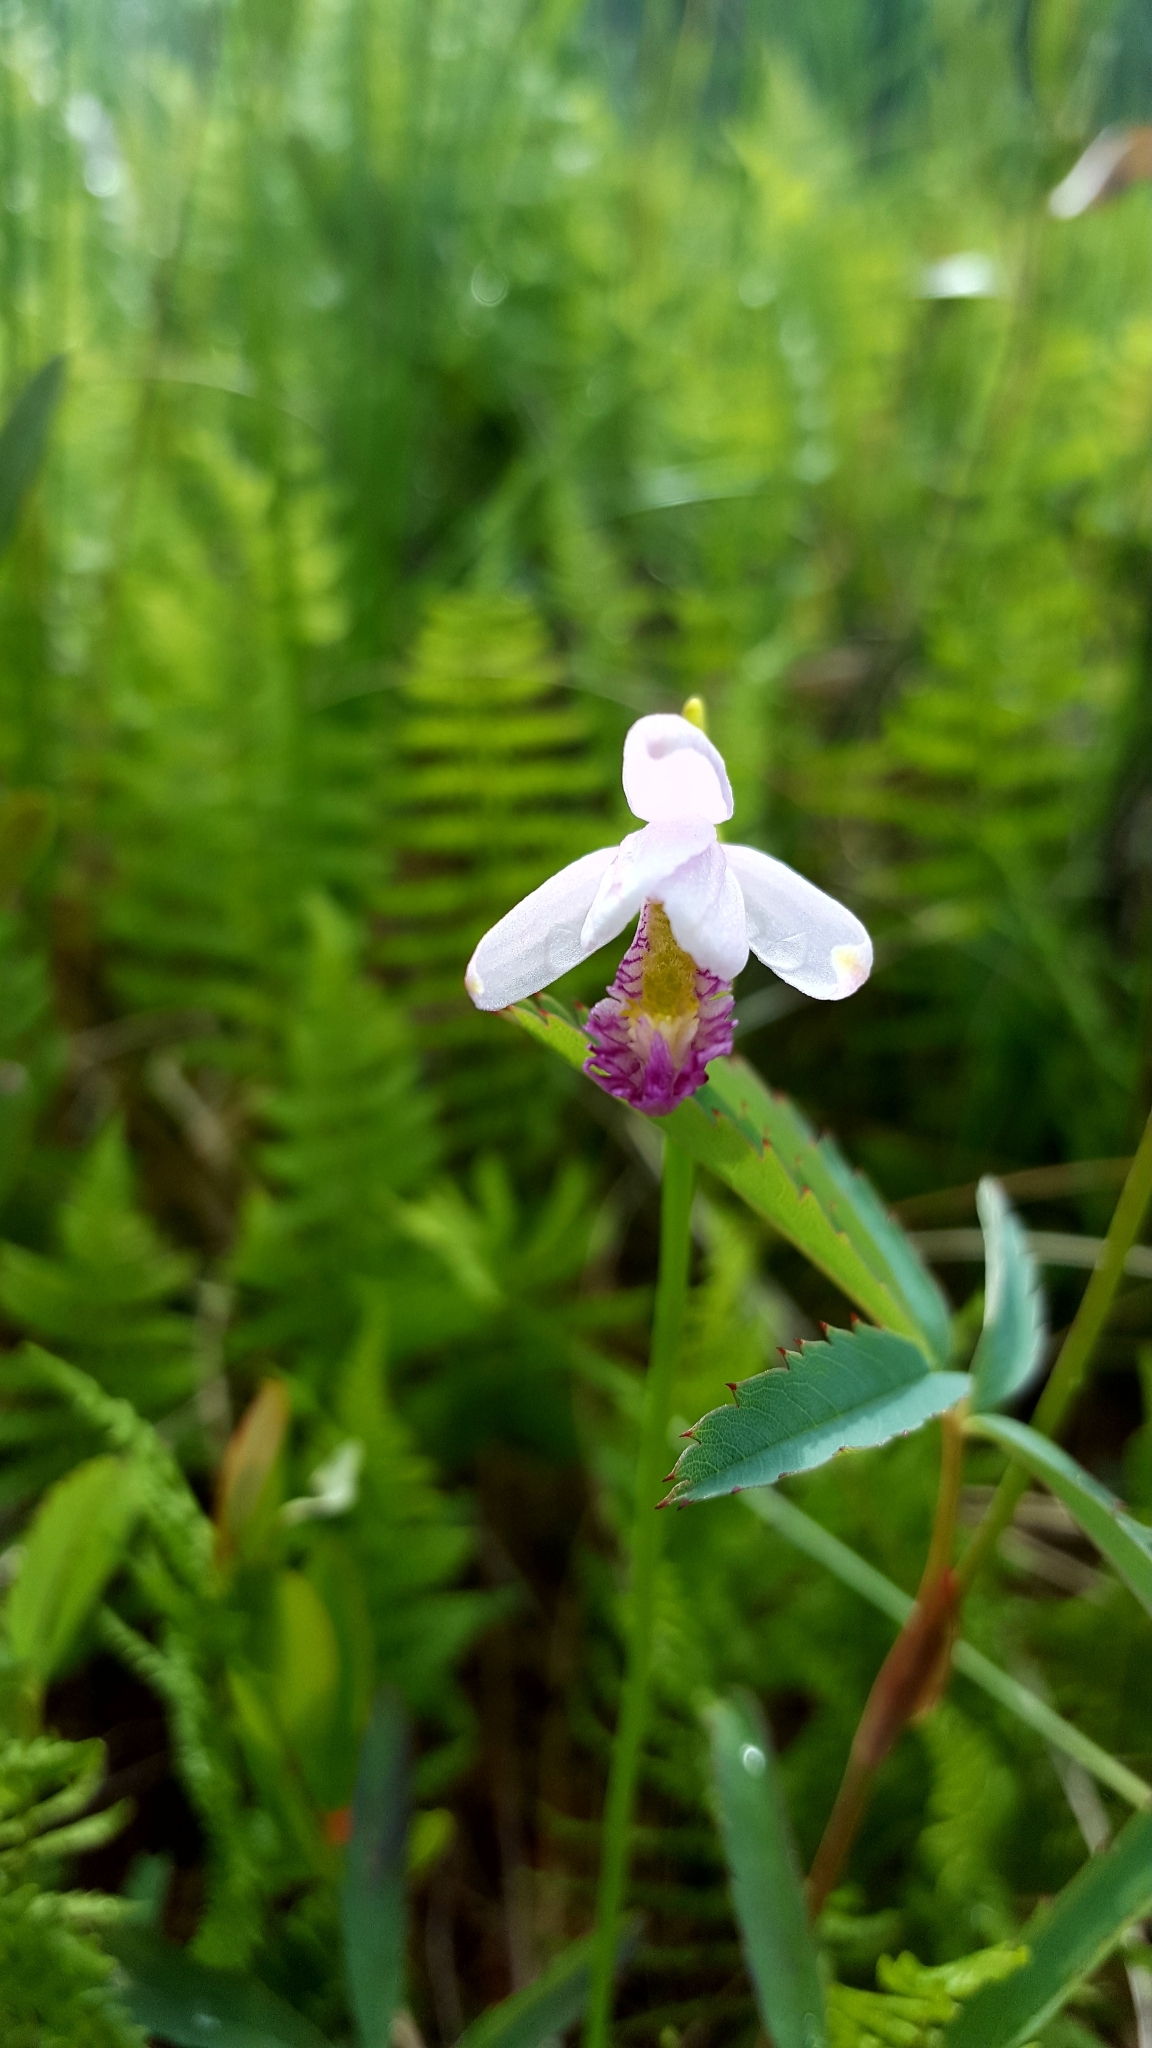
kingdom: Plantae
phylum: Tracheophyta
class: Liliopsida
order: Asparagales
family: Orchidaceae
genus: Pogonia
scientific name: Pogonia ophioglossoides
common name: Rose pogonia
